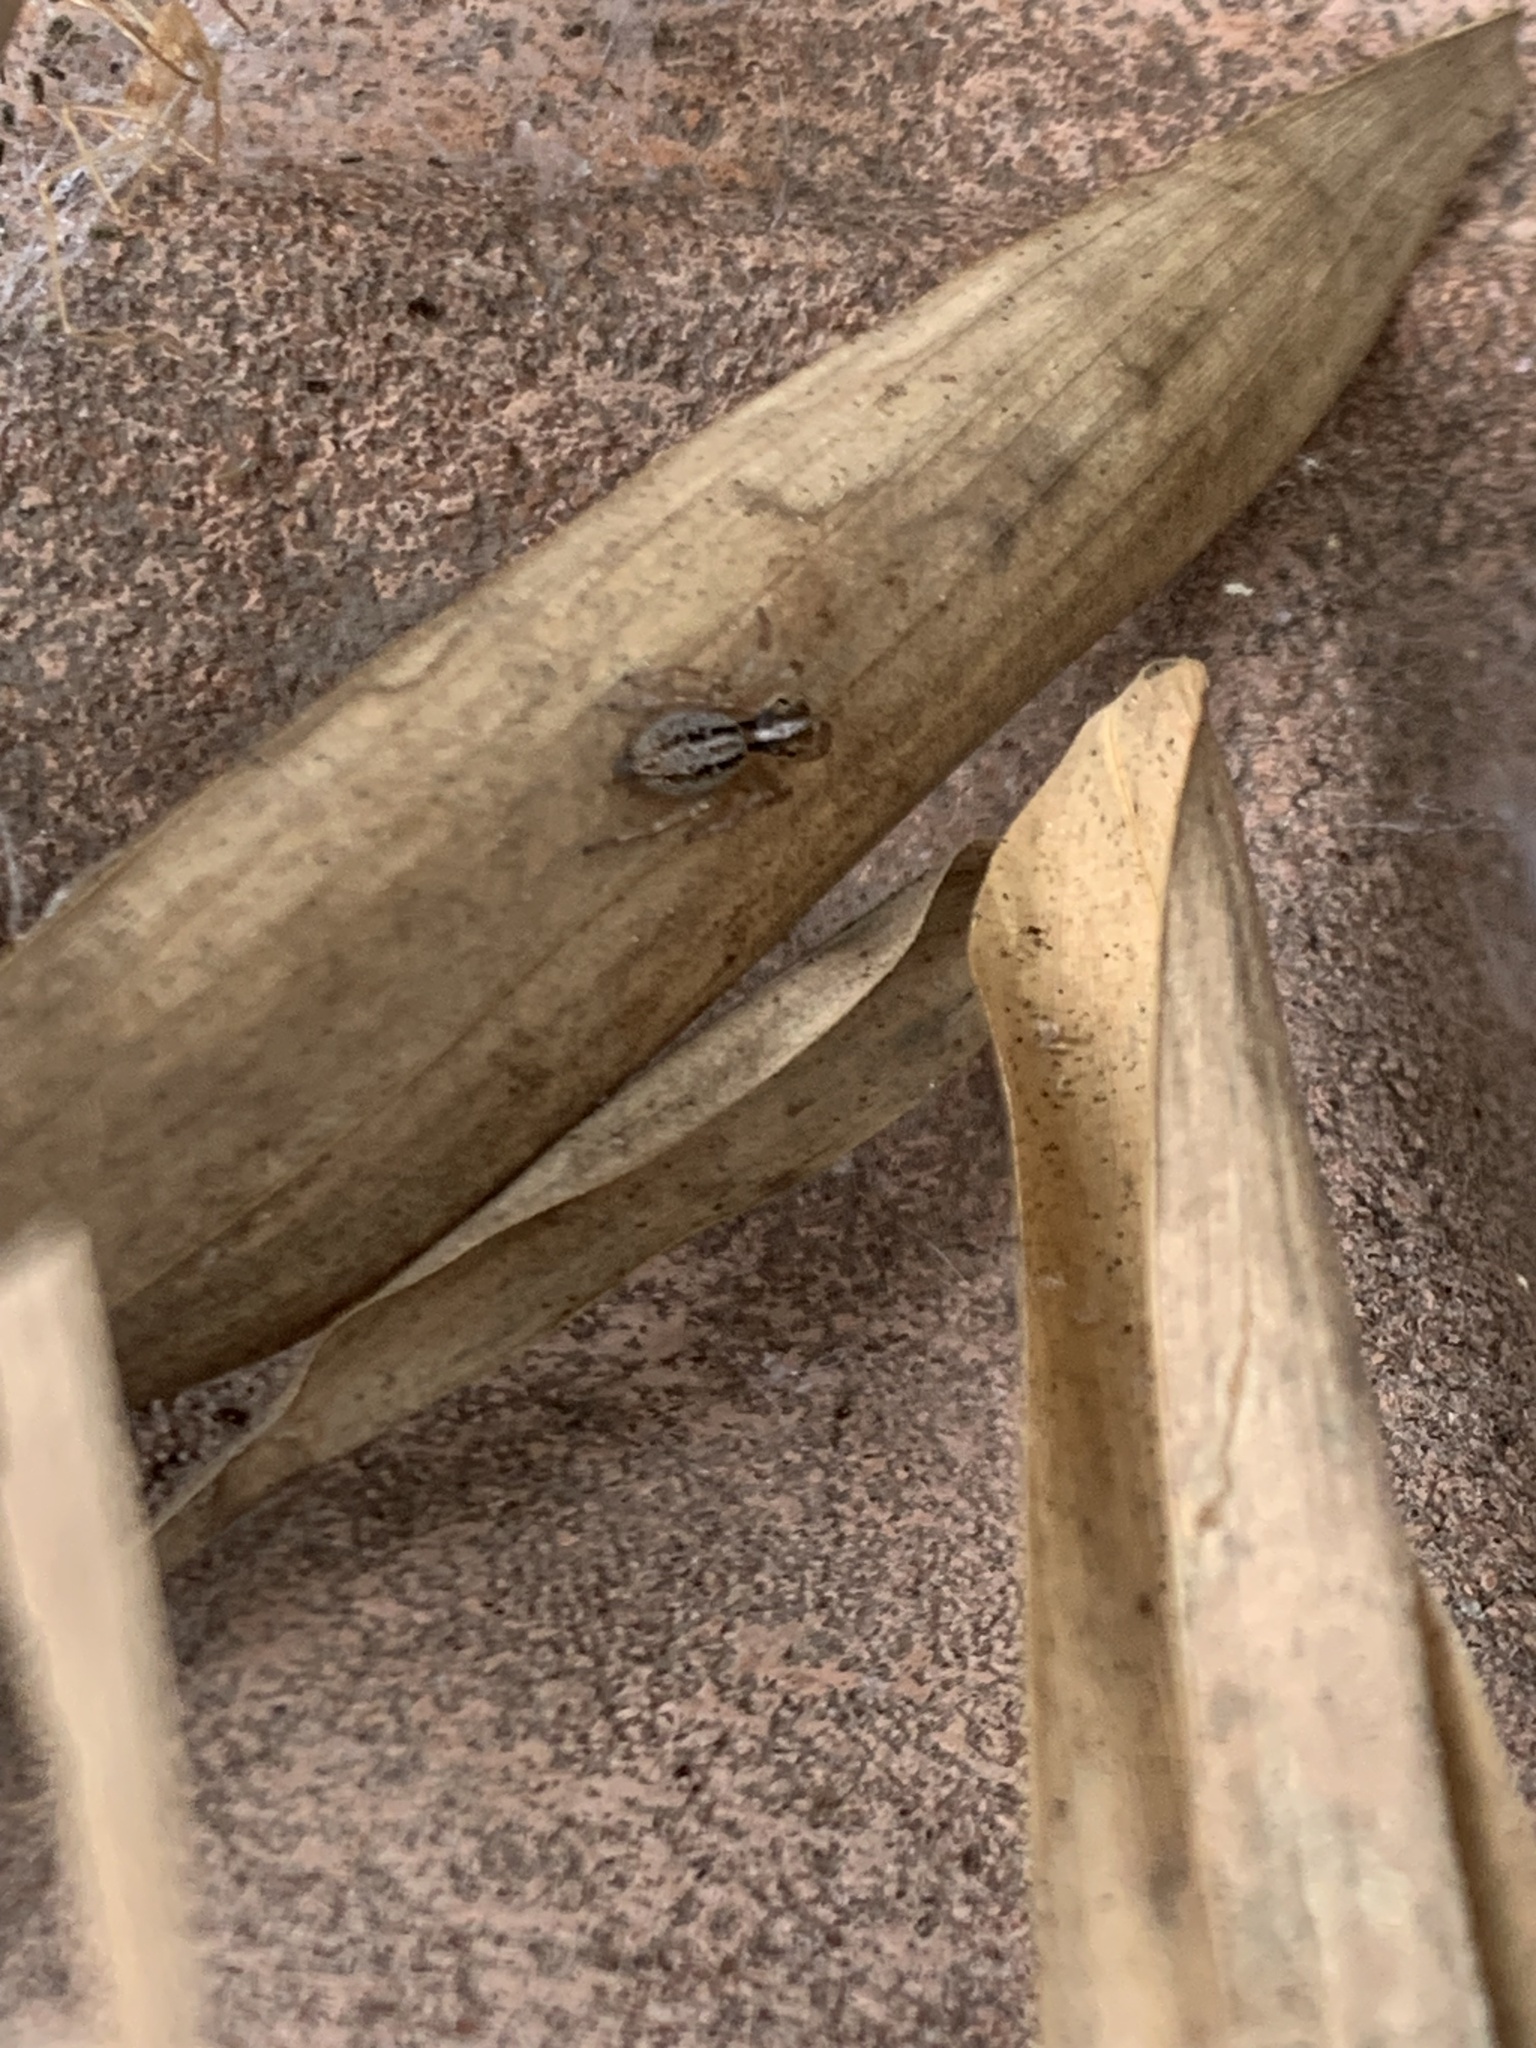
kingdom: Animalia
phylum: Arthropoda
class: Arachnida
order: Araneae
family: Salticidae
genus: Saphrys
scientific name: Saphrys saitiformis
